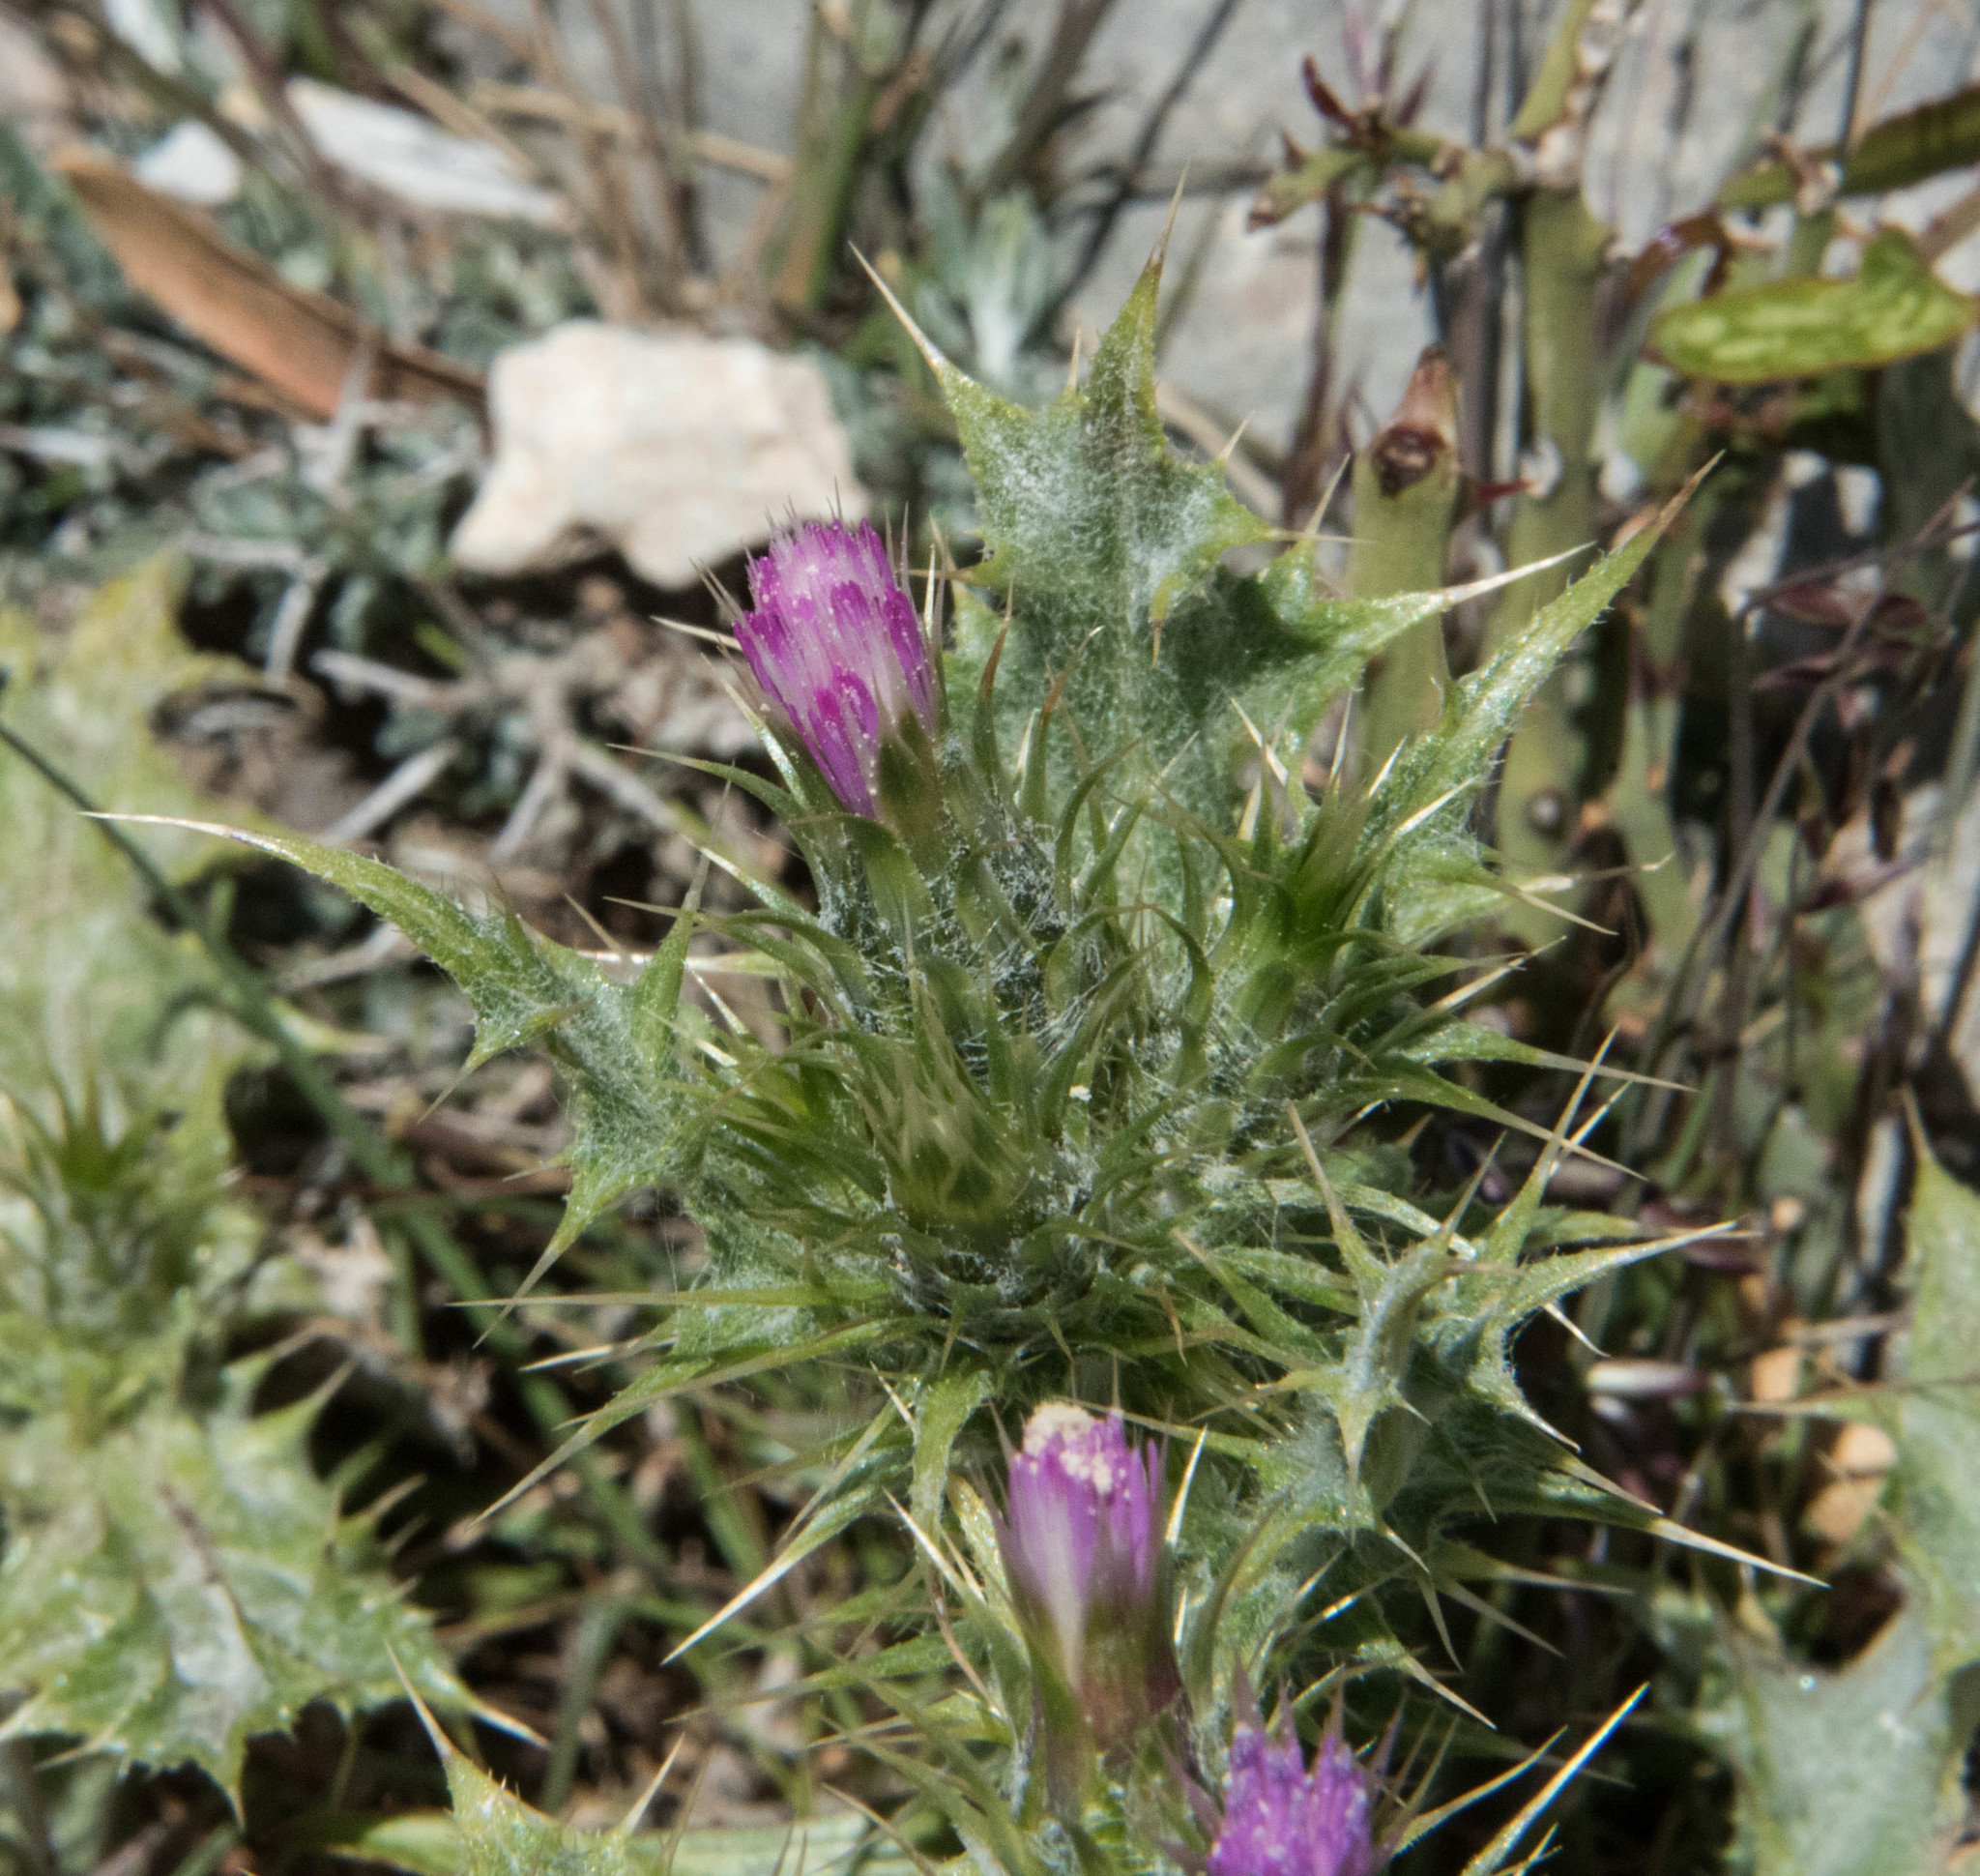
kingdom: Plantae
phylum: Tracheophyta
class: Magnoliopsida
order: Asterales
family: Asteraceae
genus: Carduus
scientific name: Carduus tenuiflorus
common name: Slender thistle
